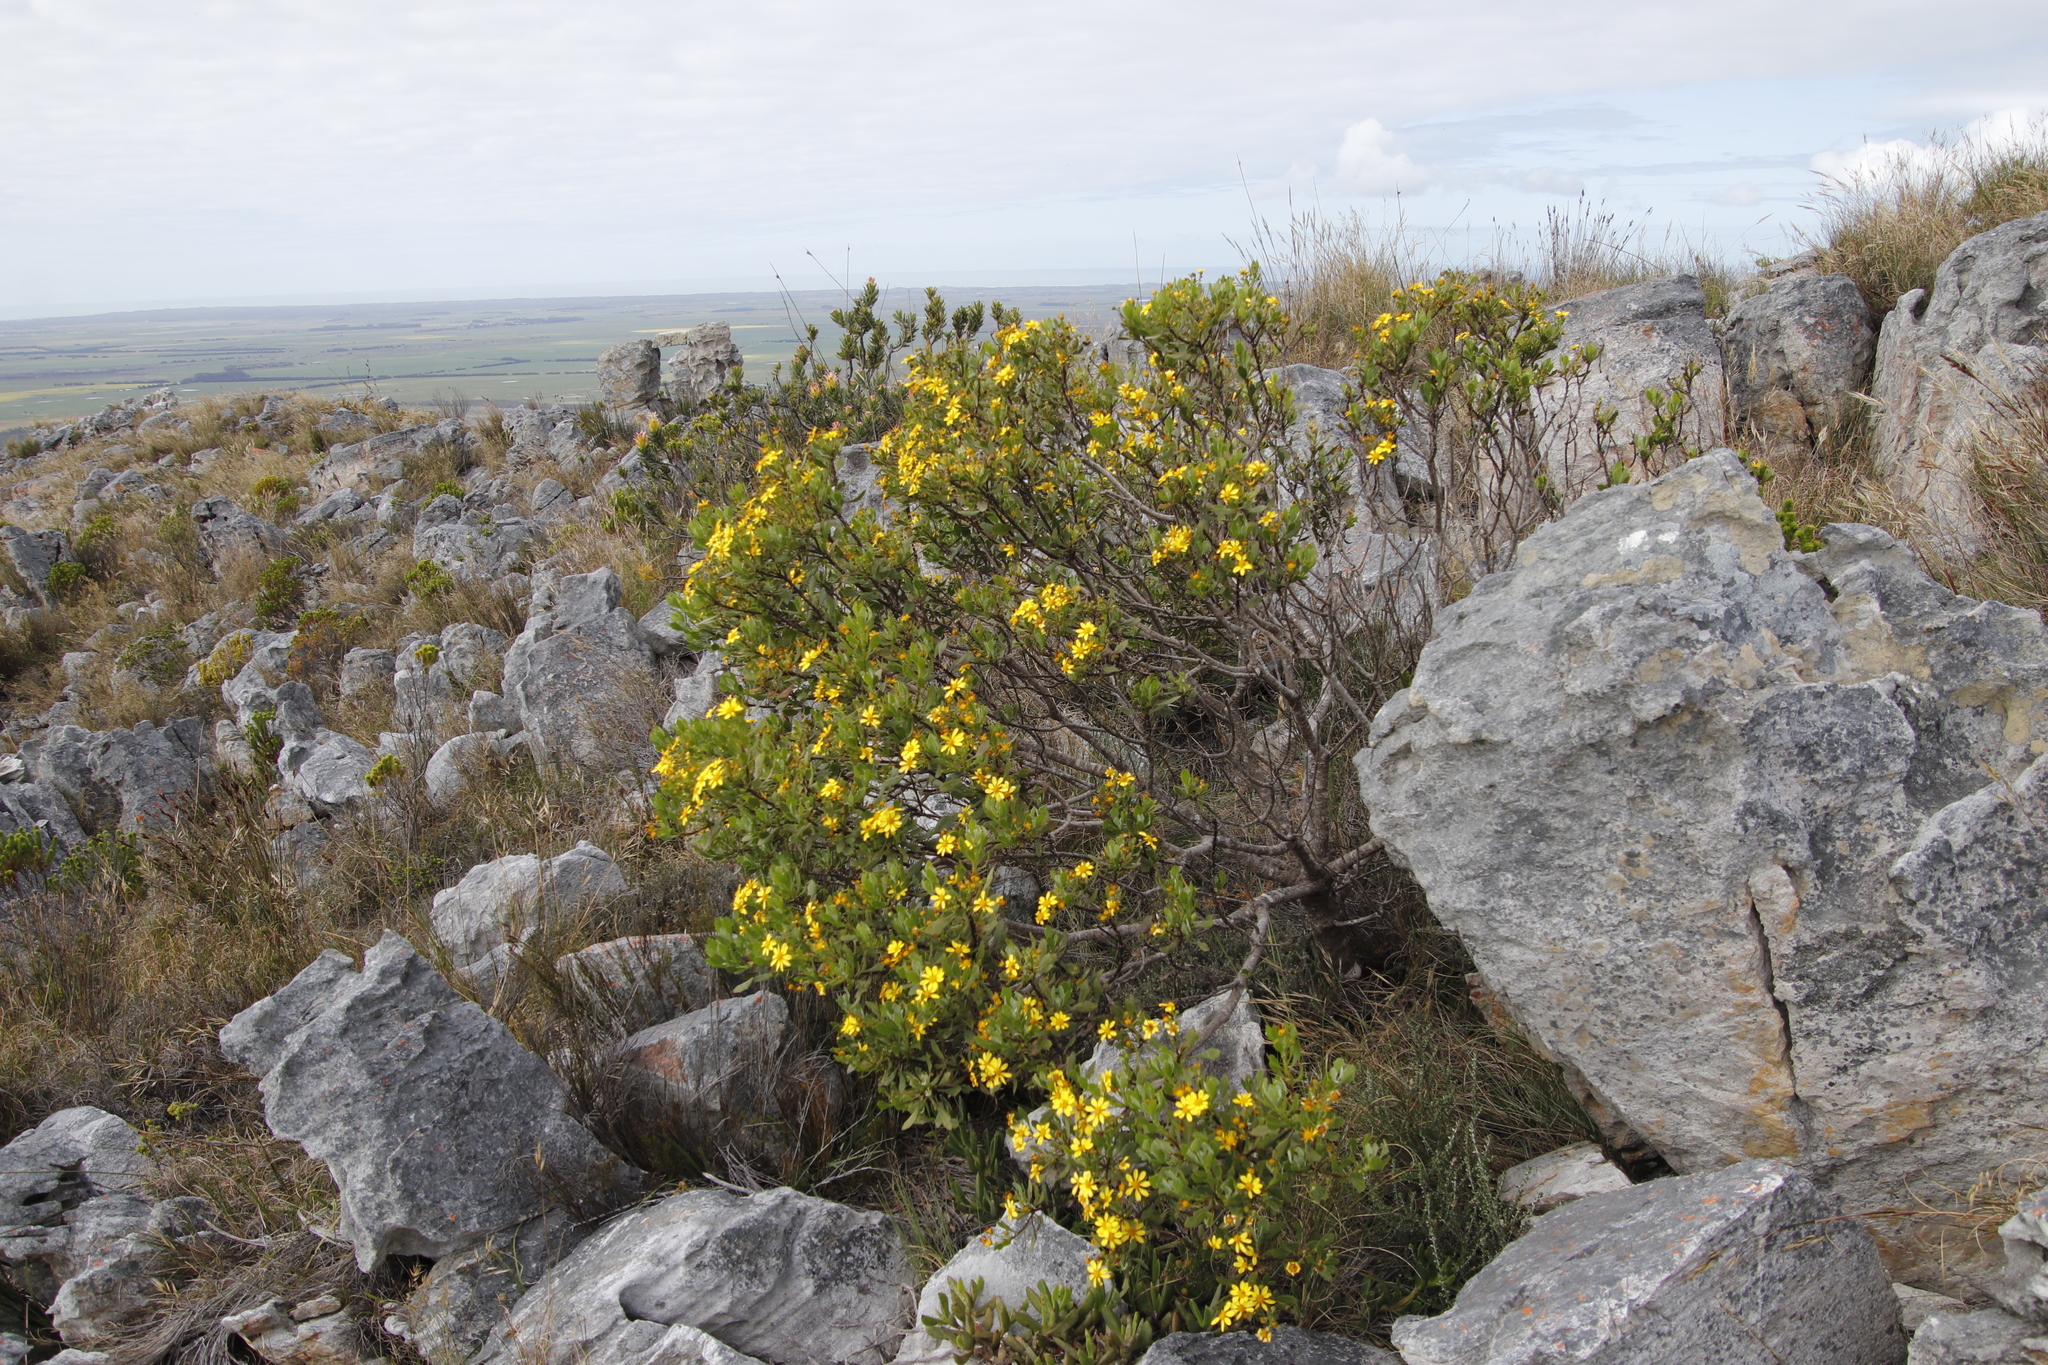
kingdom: Plantae
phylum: Tracheophyta
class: Magnoliopsida
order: Asterales
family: Asteraceae
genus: Osteospermum
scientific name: Osteospermum moniliferum
